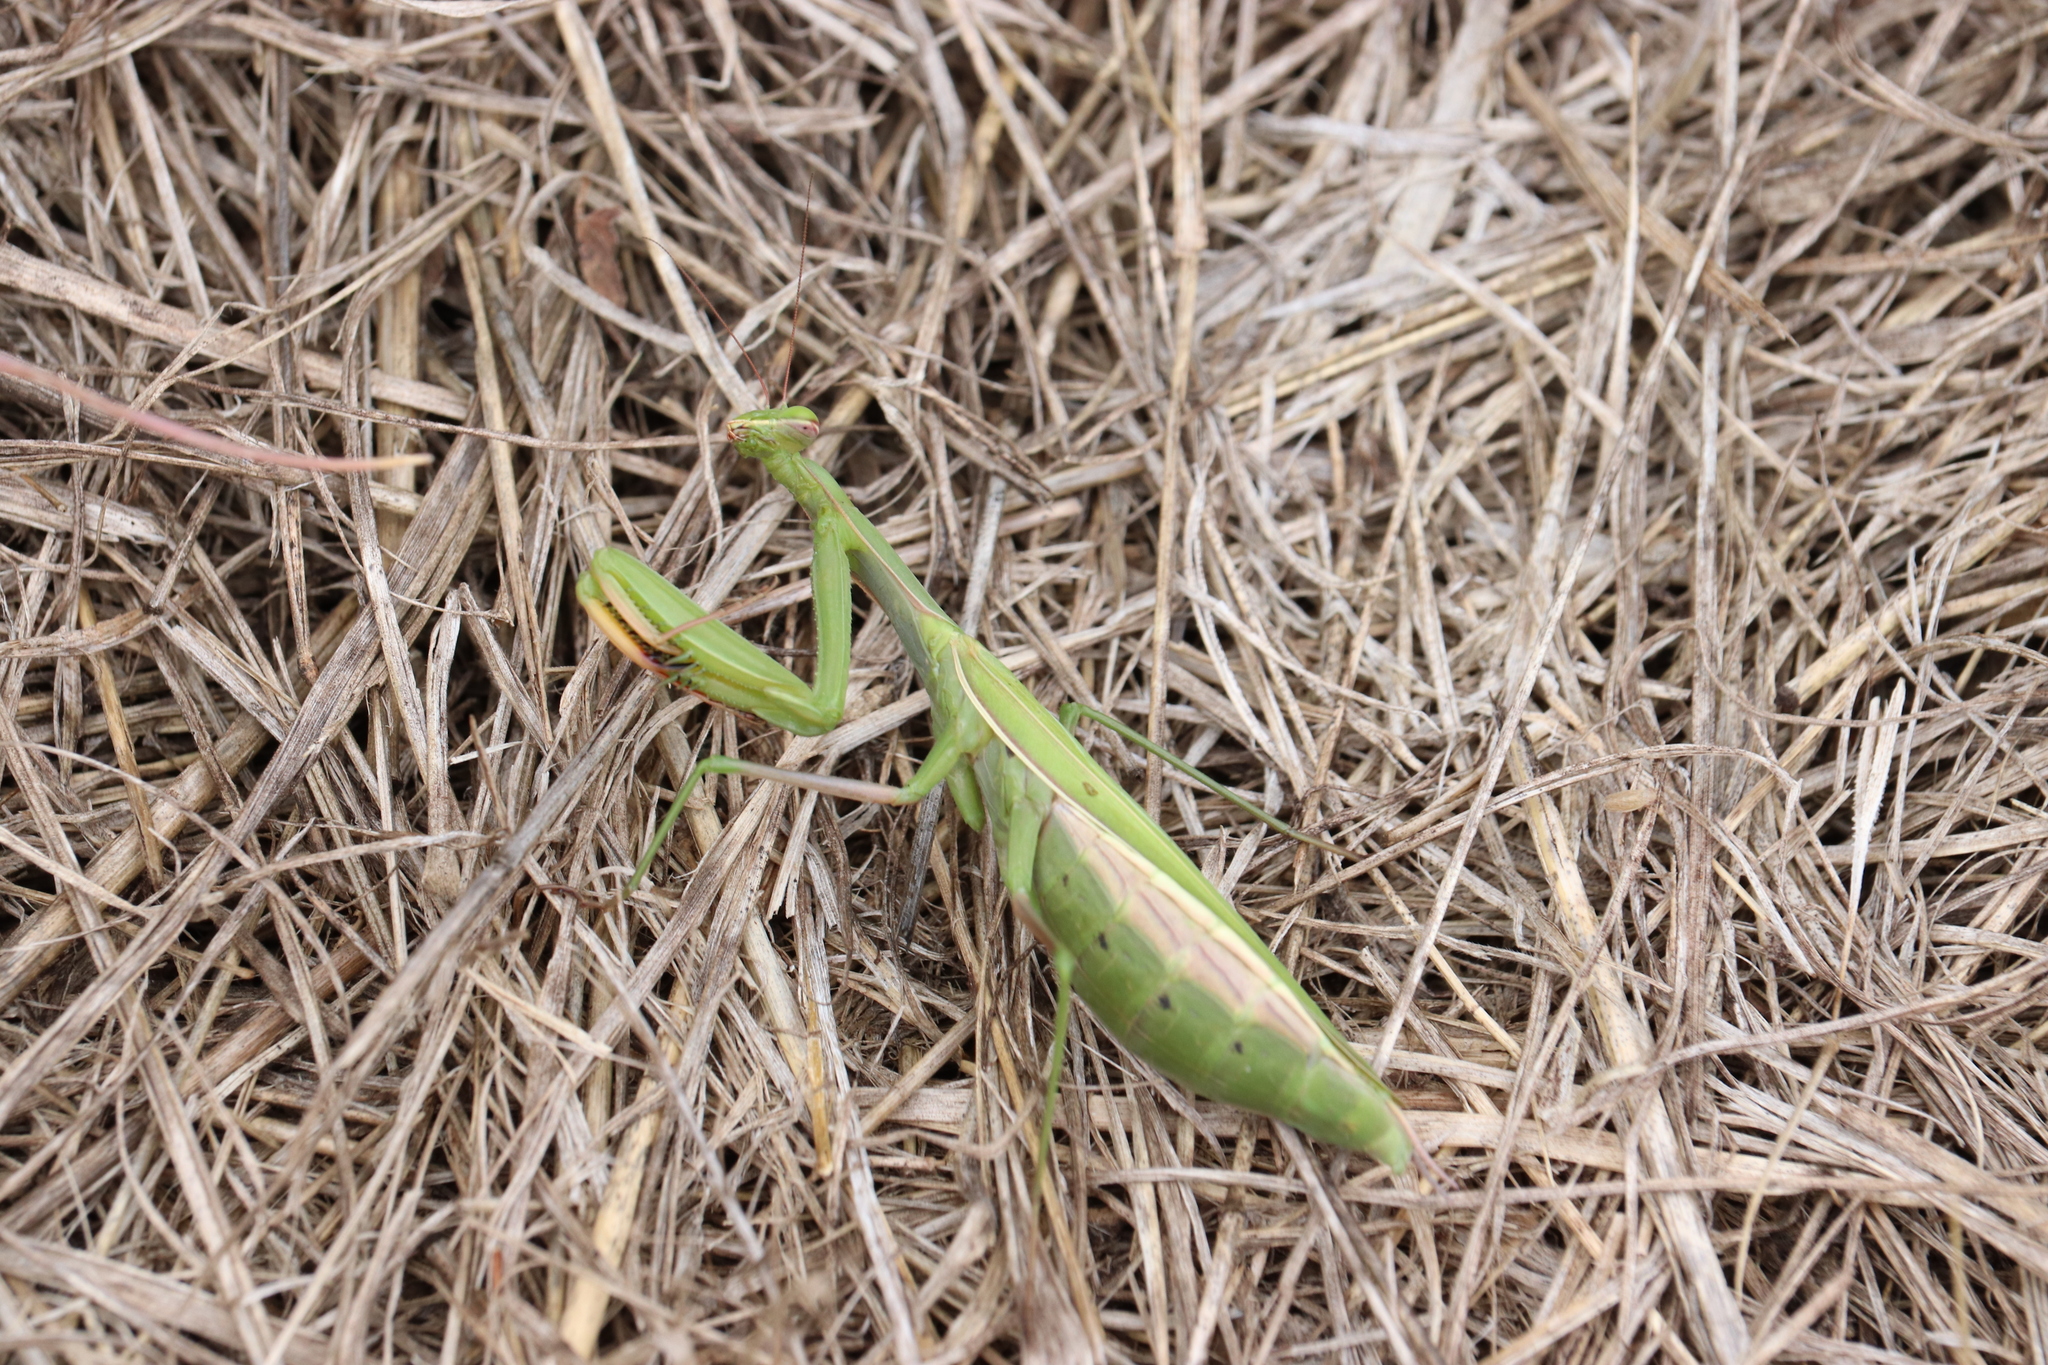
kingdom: Animalia
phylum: Arthropoda
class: Insecta
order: Mantodea
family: Mantidae
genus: Mantis
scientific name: Mantis religiosa
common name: Praying mantis
